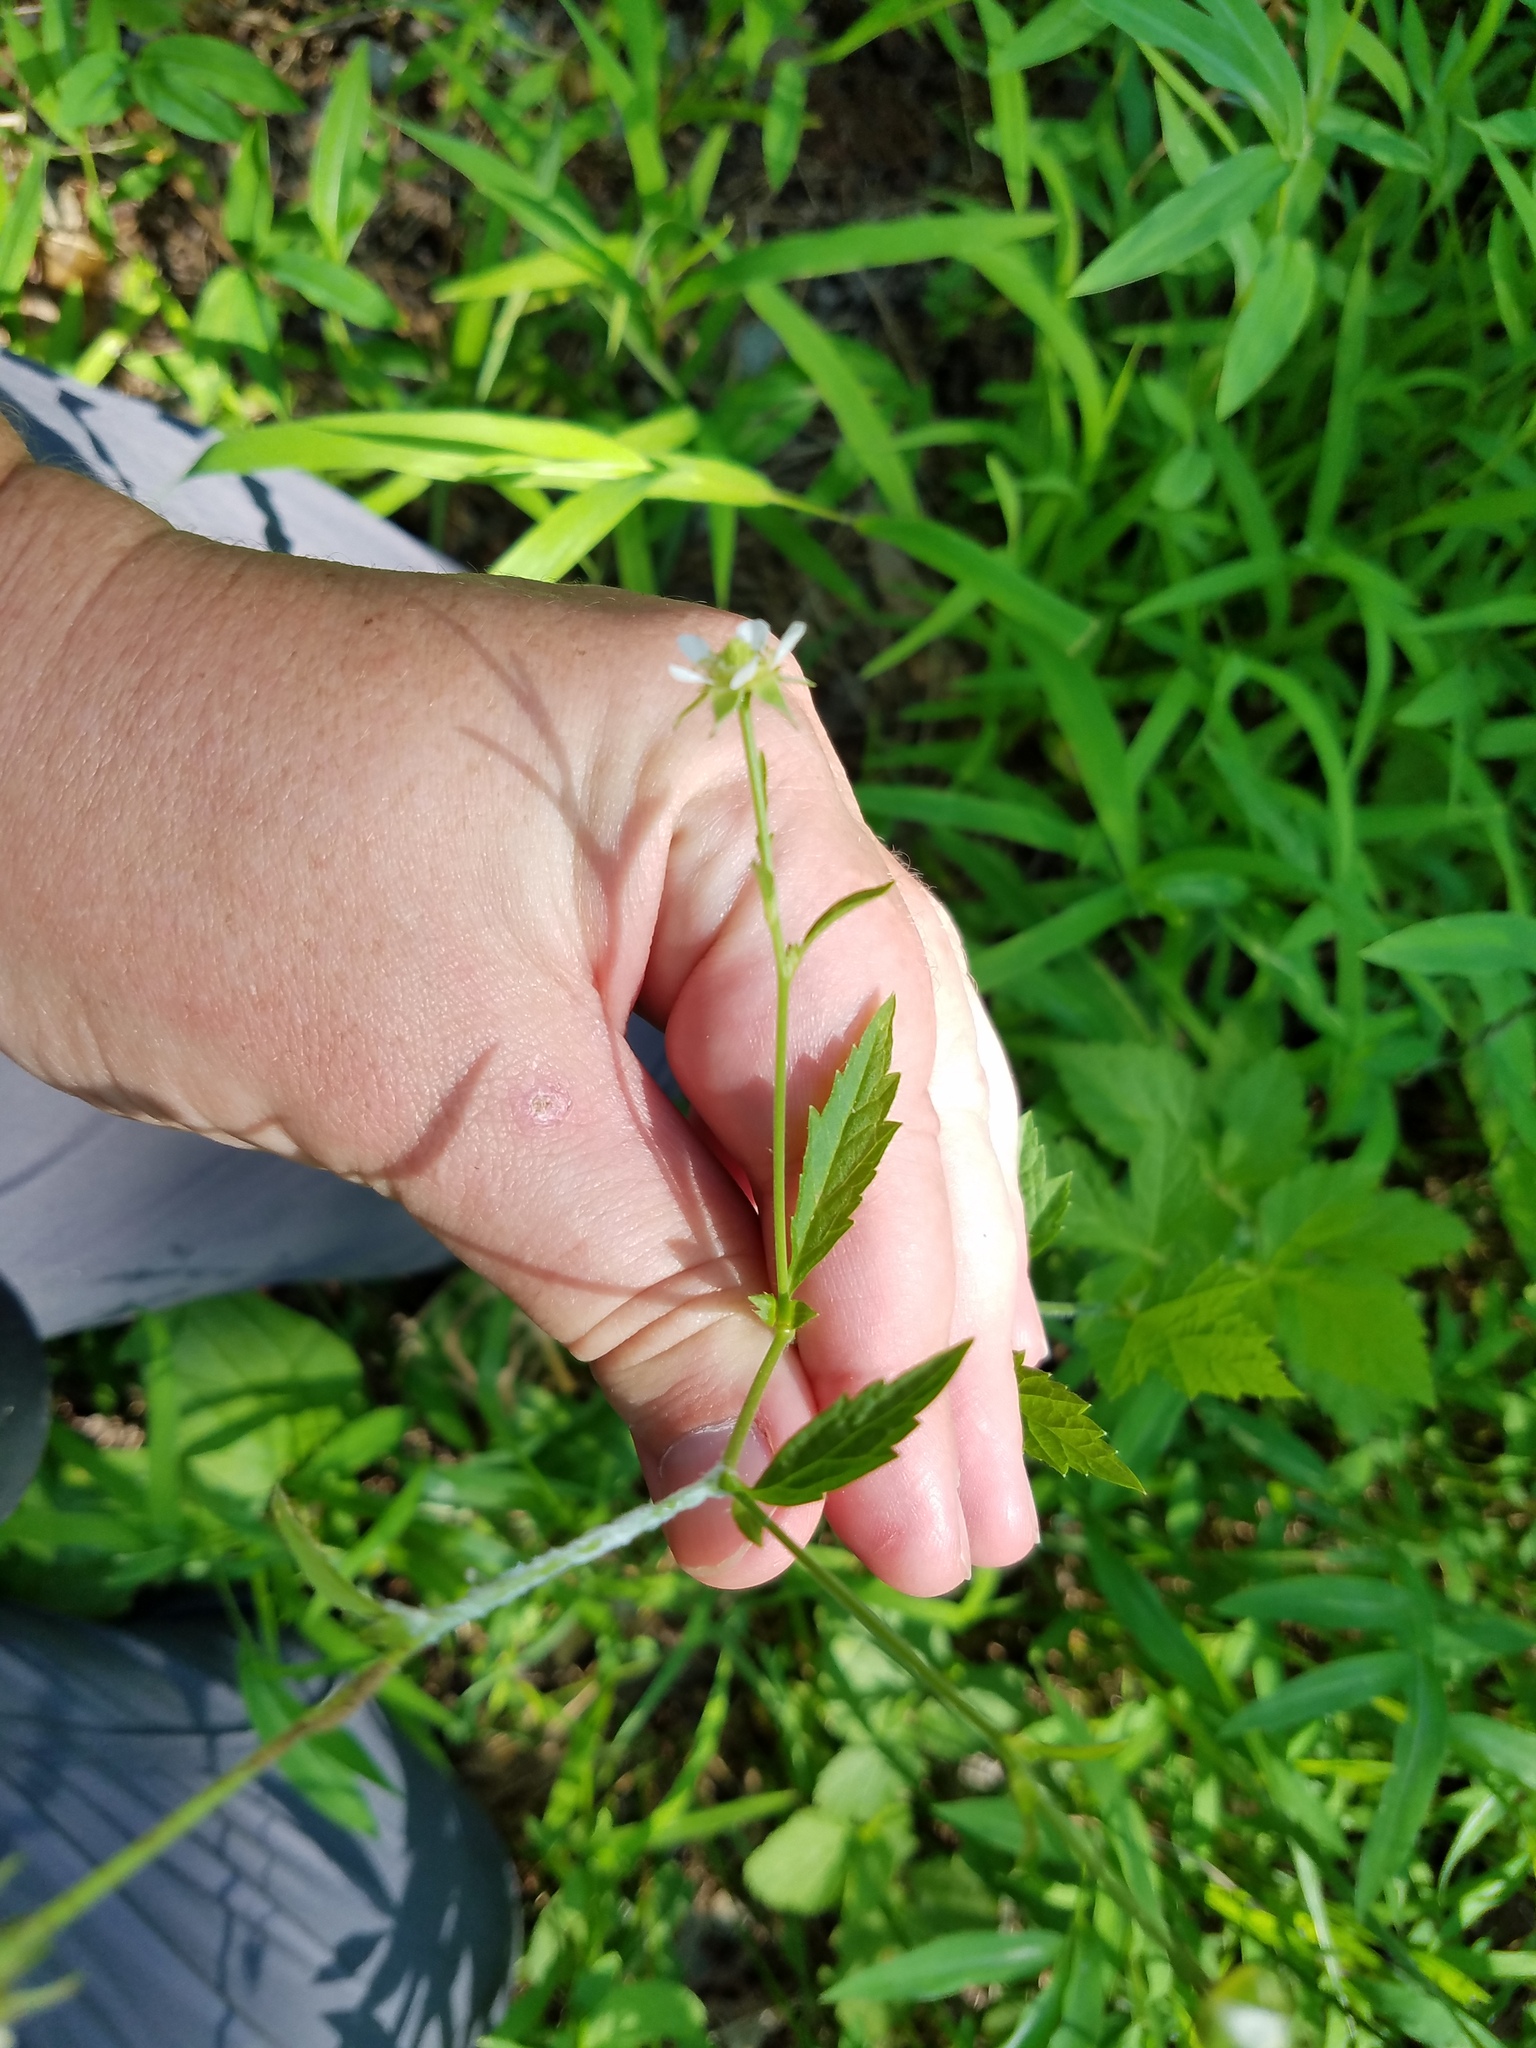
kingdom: Plantae
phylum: Tracheophyta
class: Magnoliopsida
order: Rosales
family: Rosaceae
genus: Geum
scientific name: Geum canadense
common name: White avens
